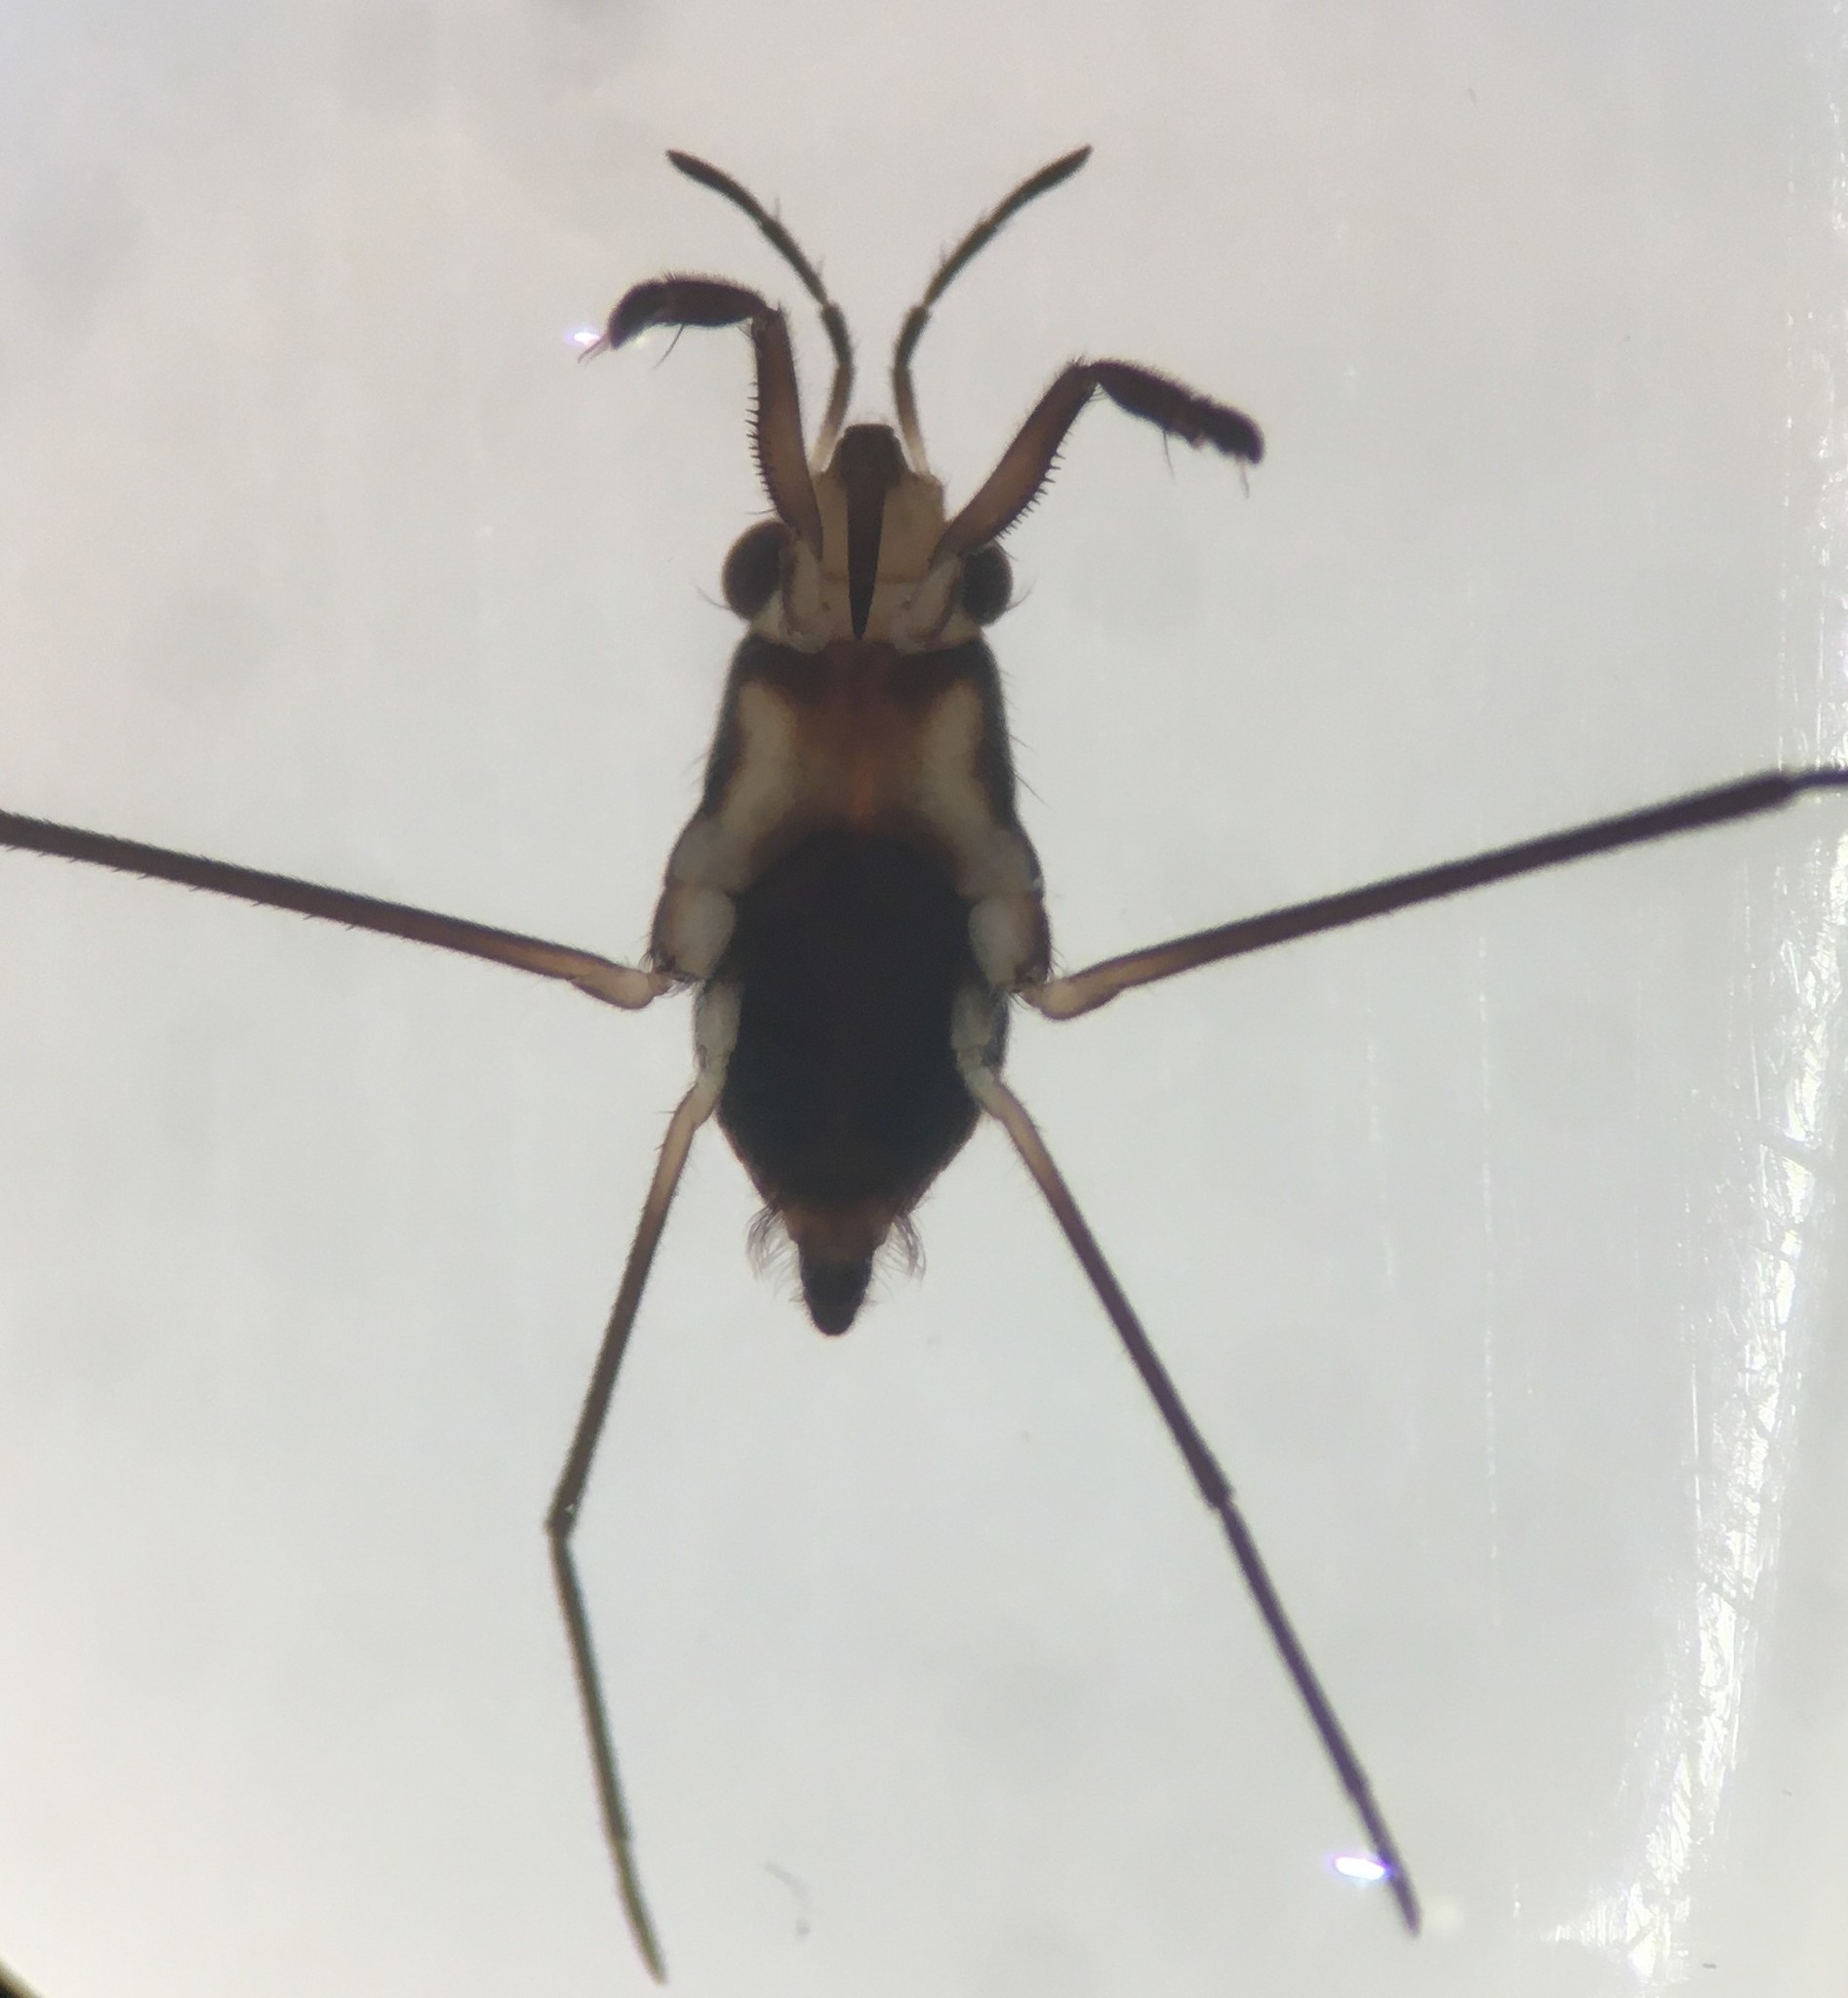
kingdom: Animalia
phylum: Arthropoda
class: Insecta
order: Hemiptera
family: Gerridae
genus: Rheumatobates
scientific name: Rheumatobates vegatus
